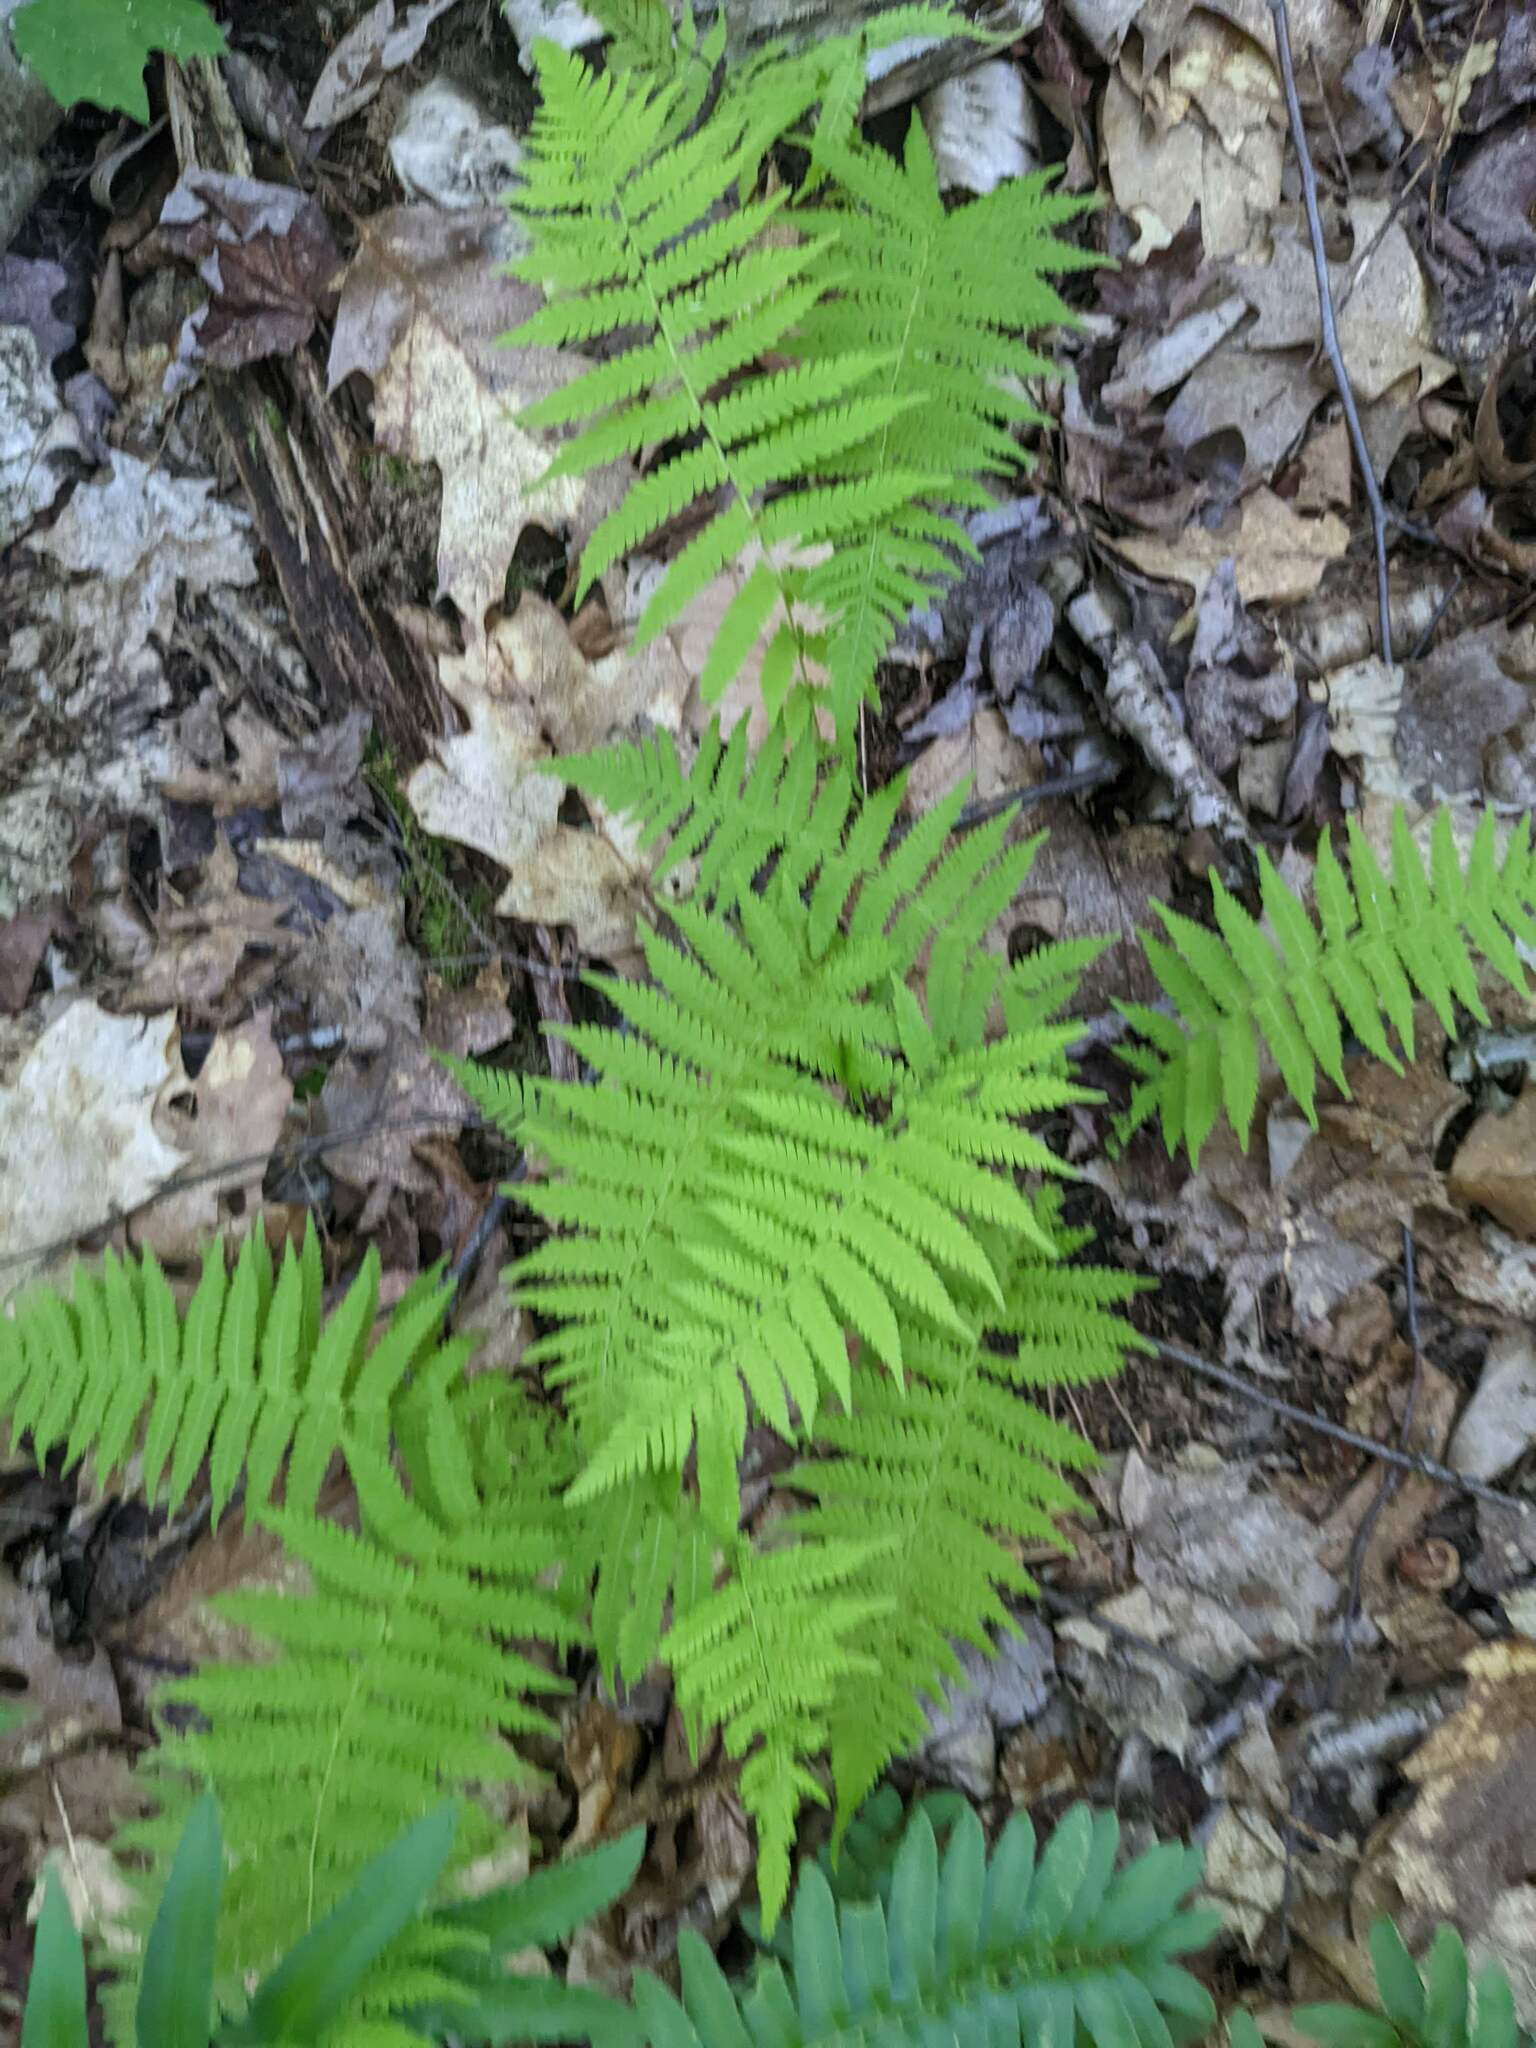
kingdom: Plantae
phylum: Tracheophyta
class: Polypodiopsida
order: Polypodiales
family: Thelypteridaceae
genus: Amauropelta
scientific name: Amauropelta noveboracensis
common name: New york fern
